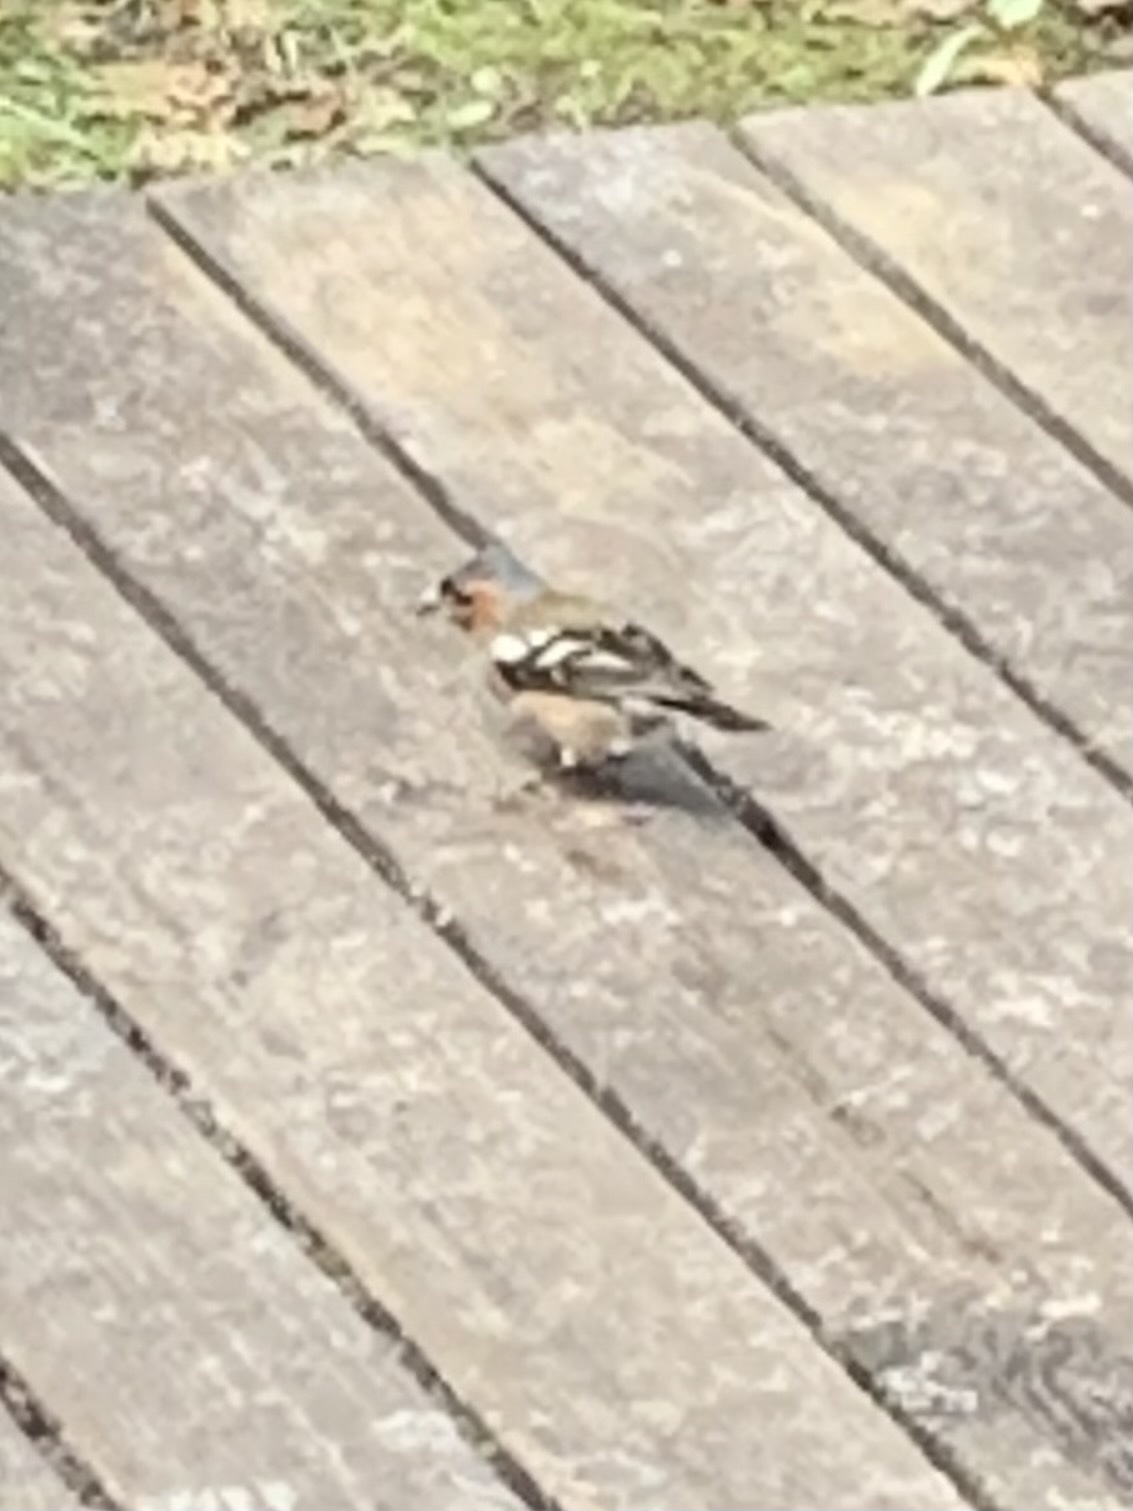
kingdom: Animalia
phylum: Chordata
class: Aves
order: Passeriformes
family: Fringillidae
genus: Fringilla
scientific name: Fringilla coelebs
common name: Common chaffinch
